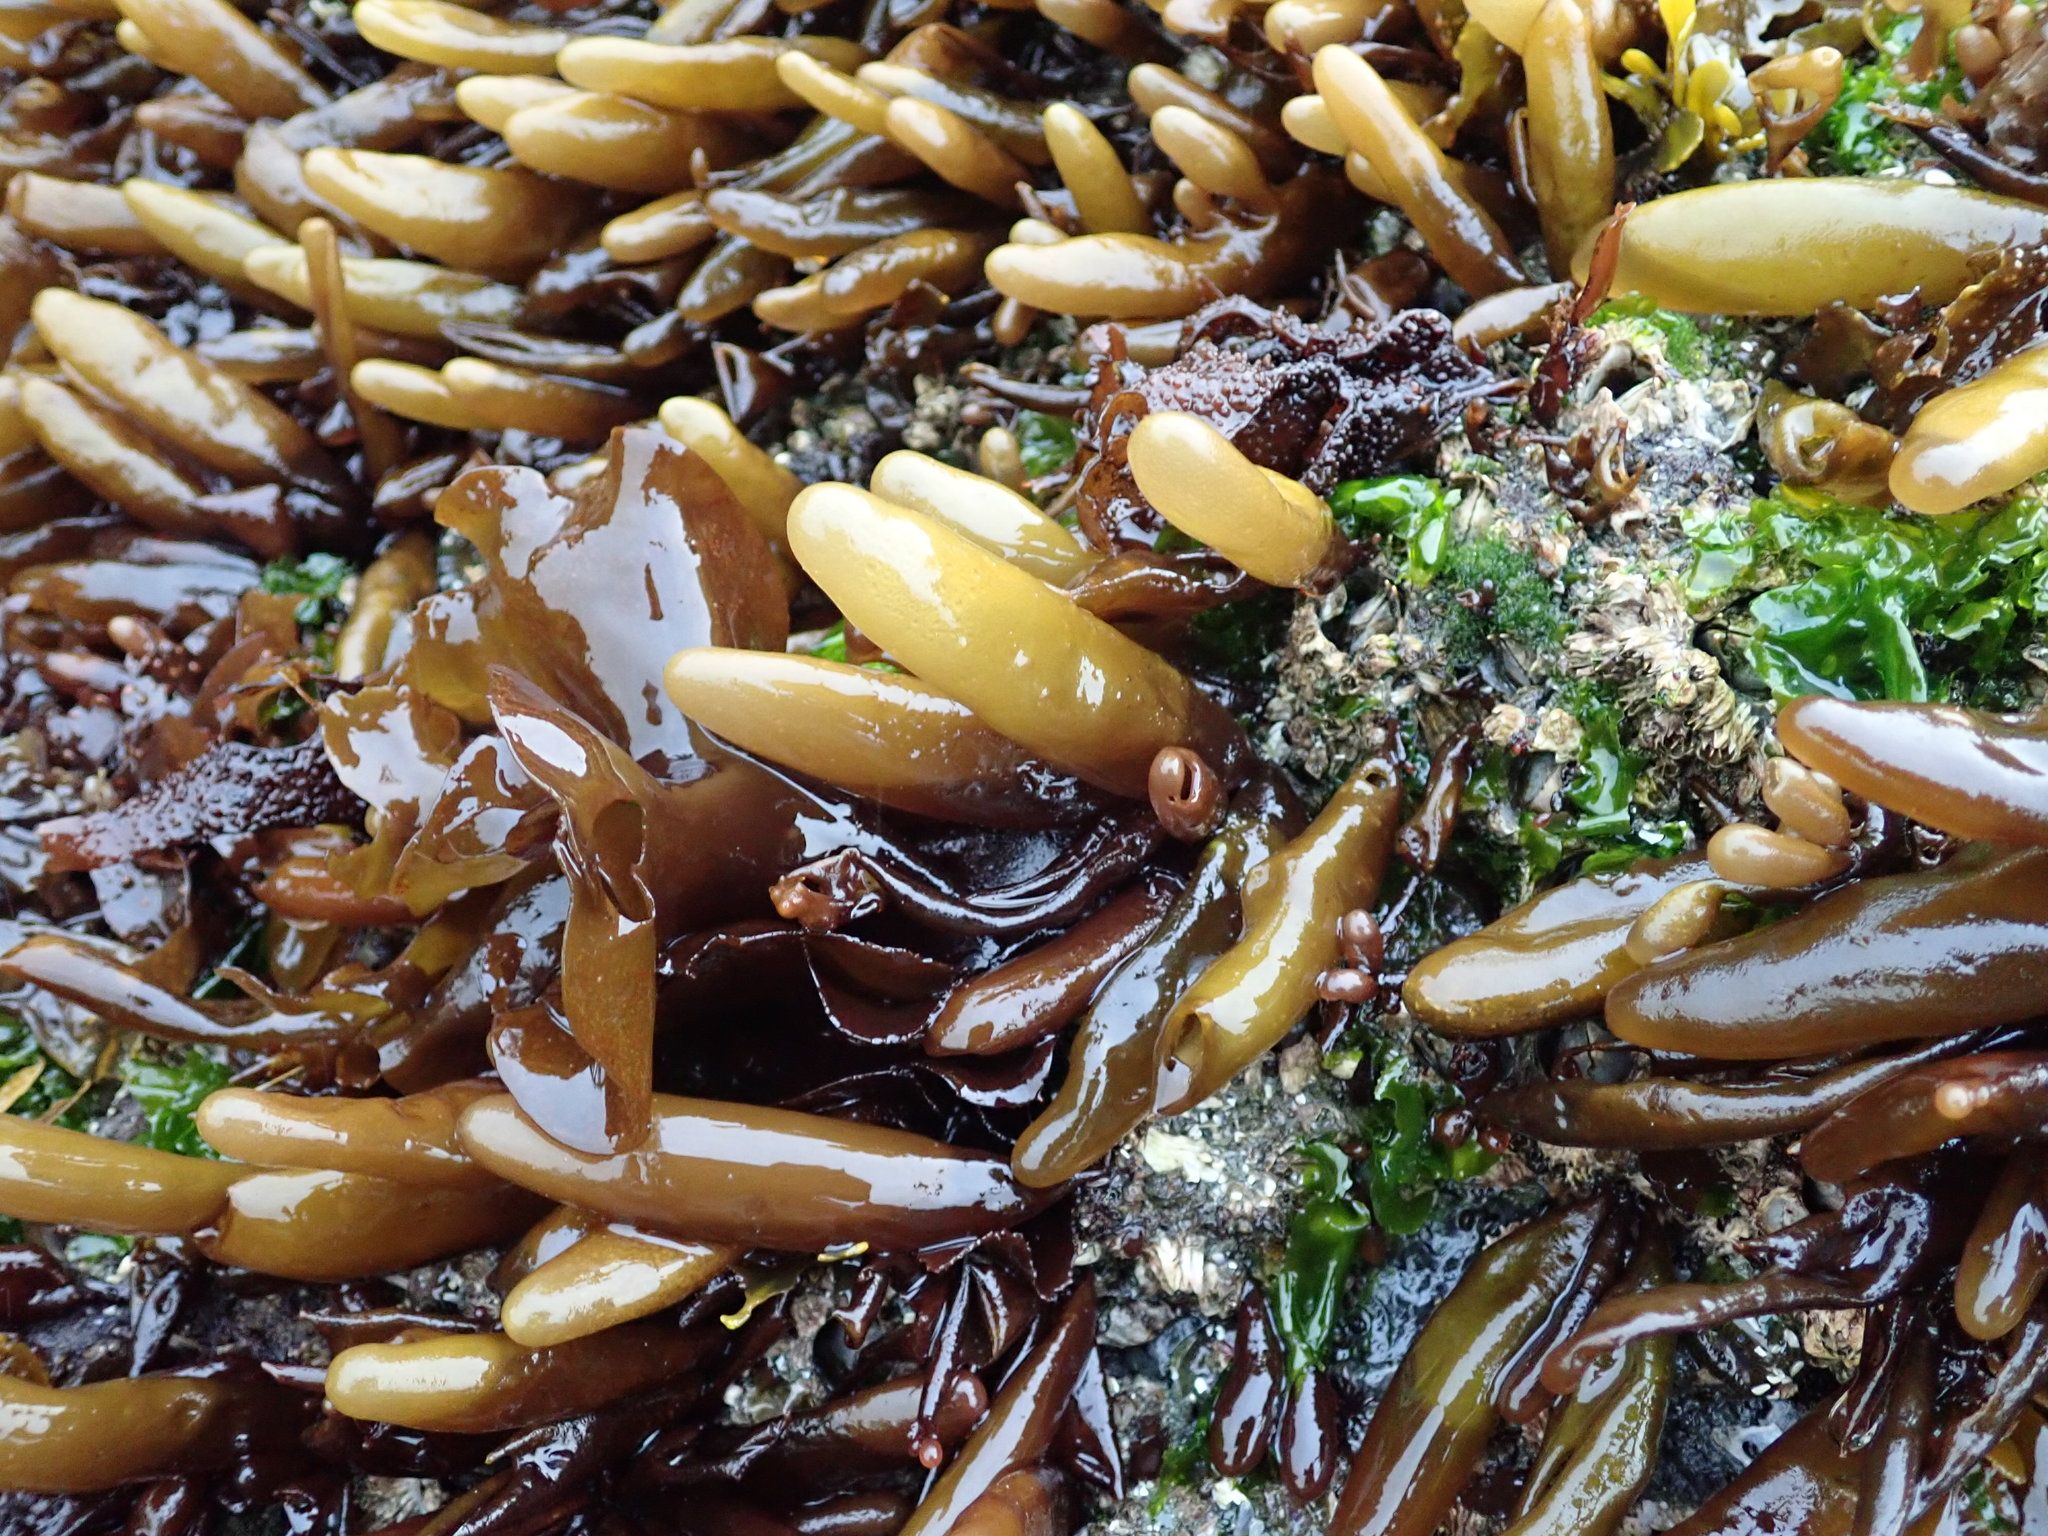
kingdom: Plantae
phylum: Rhodophyta
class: Florideophyceae
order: Palmariales
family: Palmariaceae
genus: Halosaccion
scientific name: Halosaccion glandiforme
